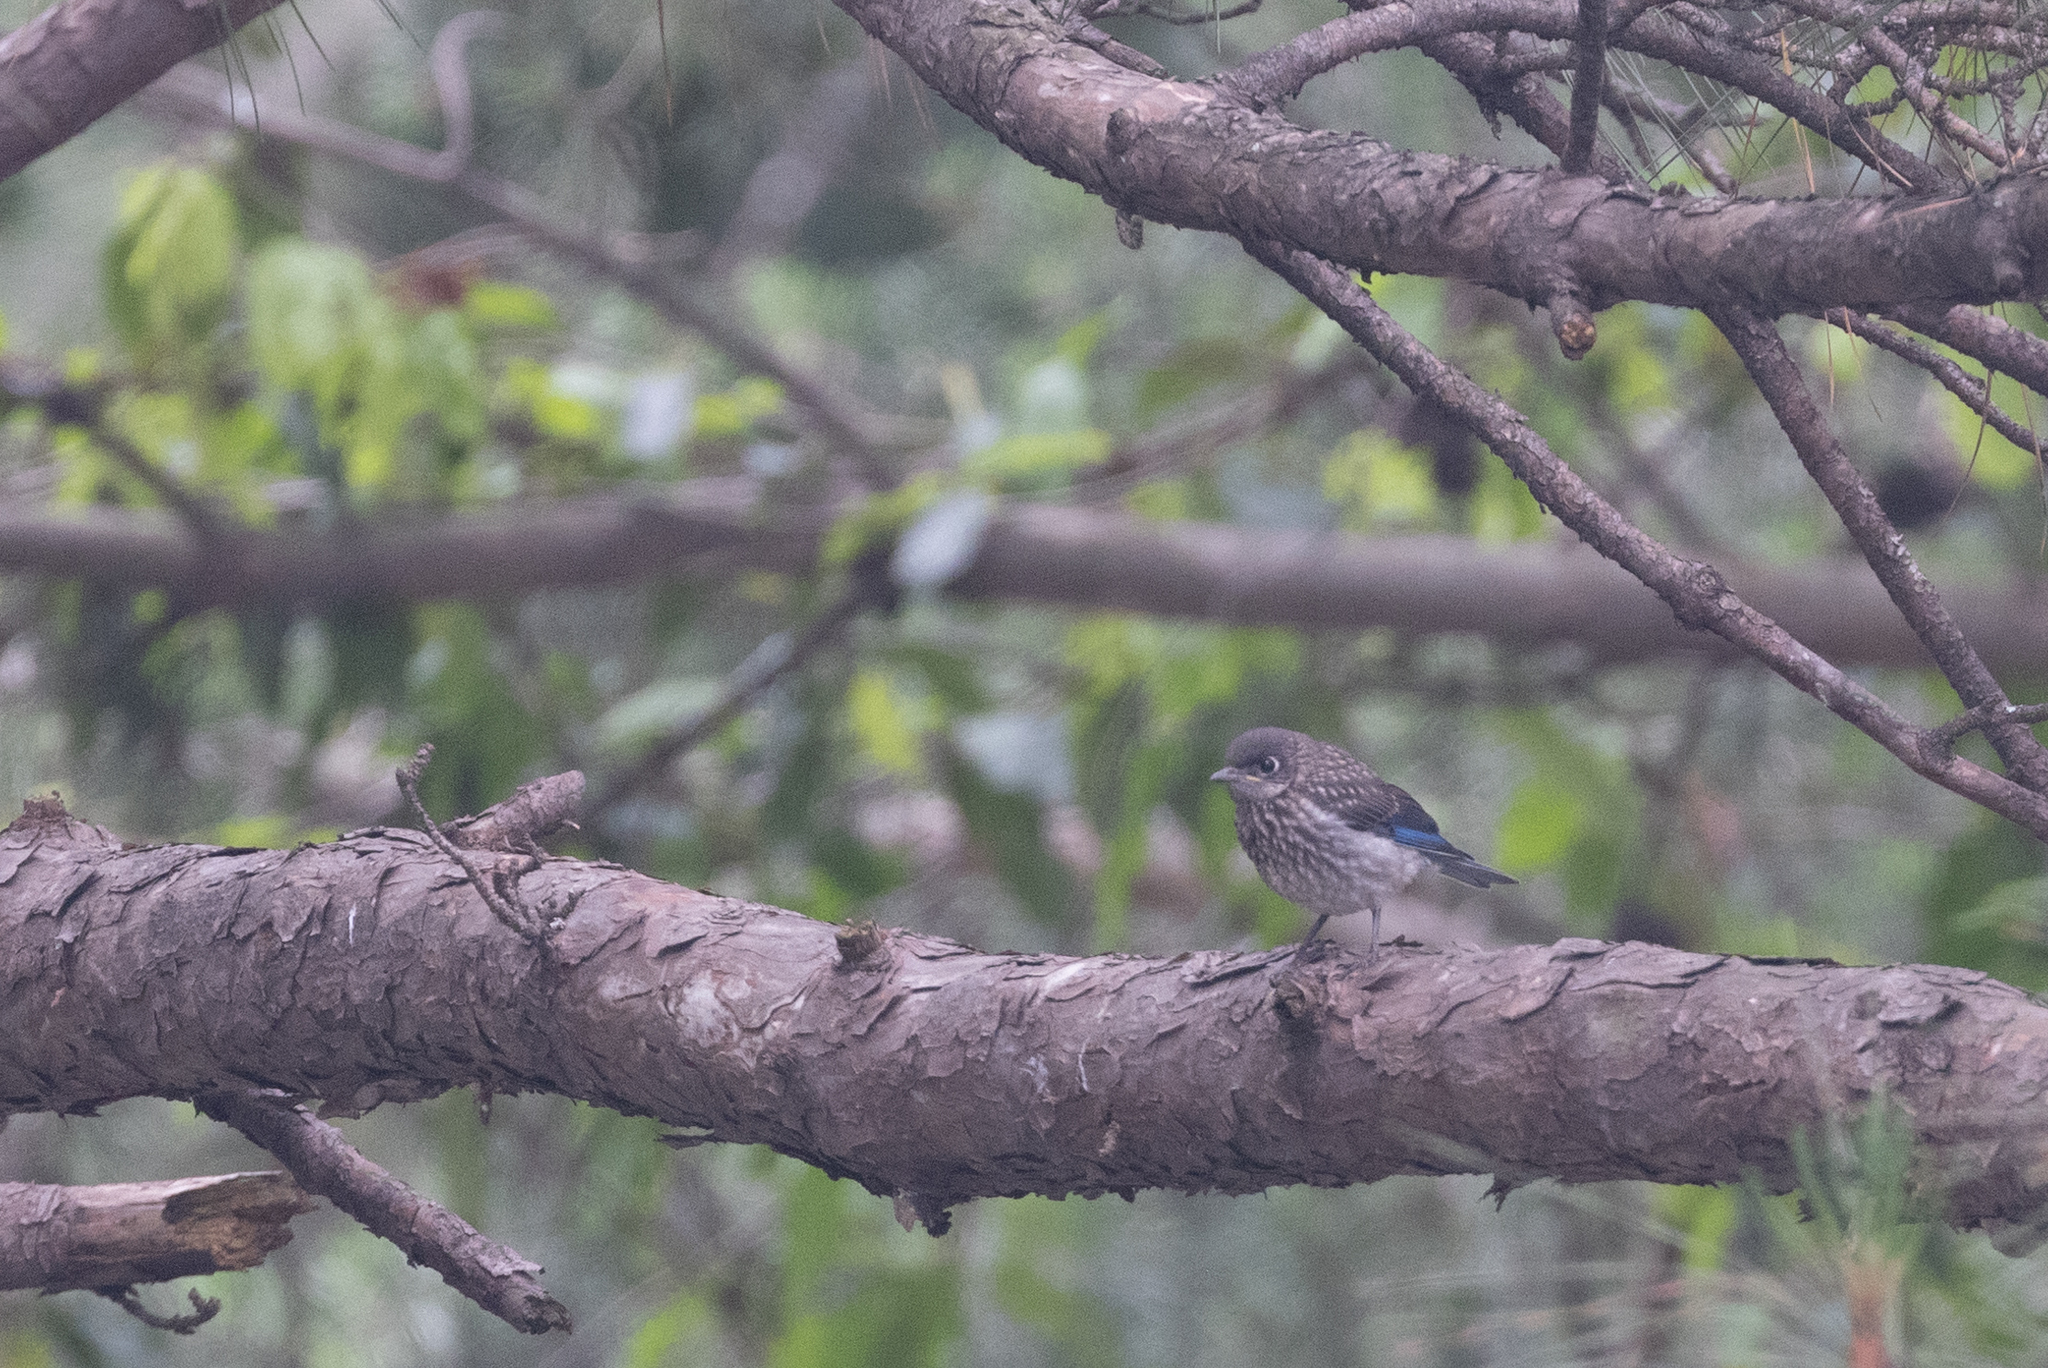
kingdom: Animalia
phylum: Chordata
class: Aves
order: Passeriformes
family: Turdidae
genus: Sialia
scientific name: Sialia sialis
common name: Eastern bluebird
